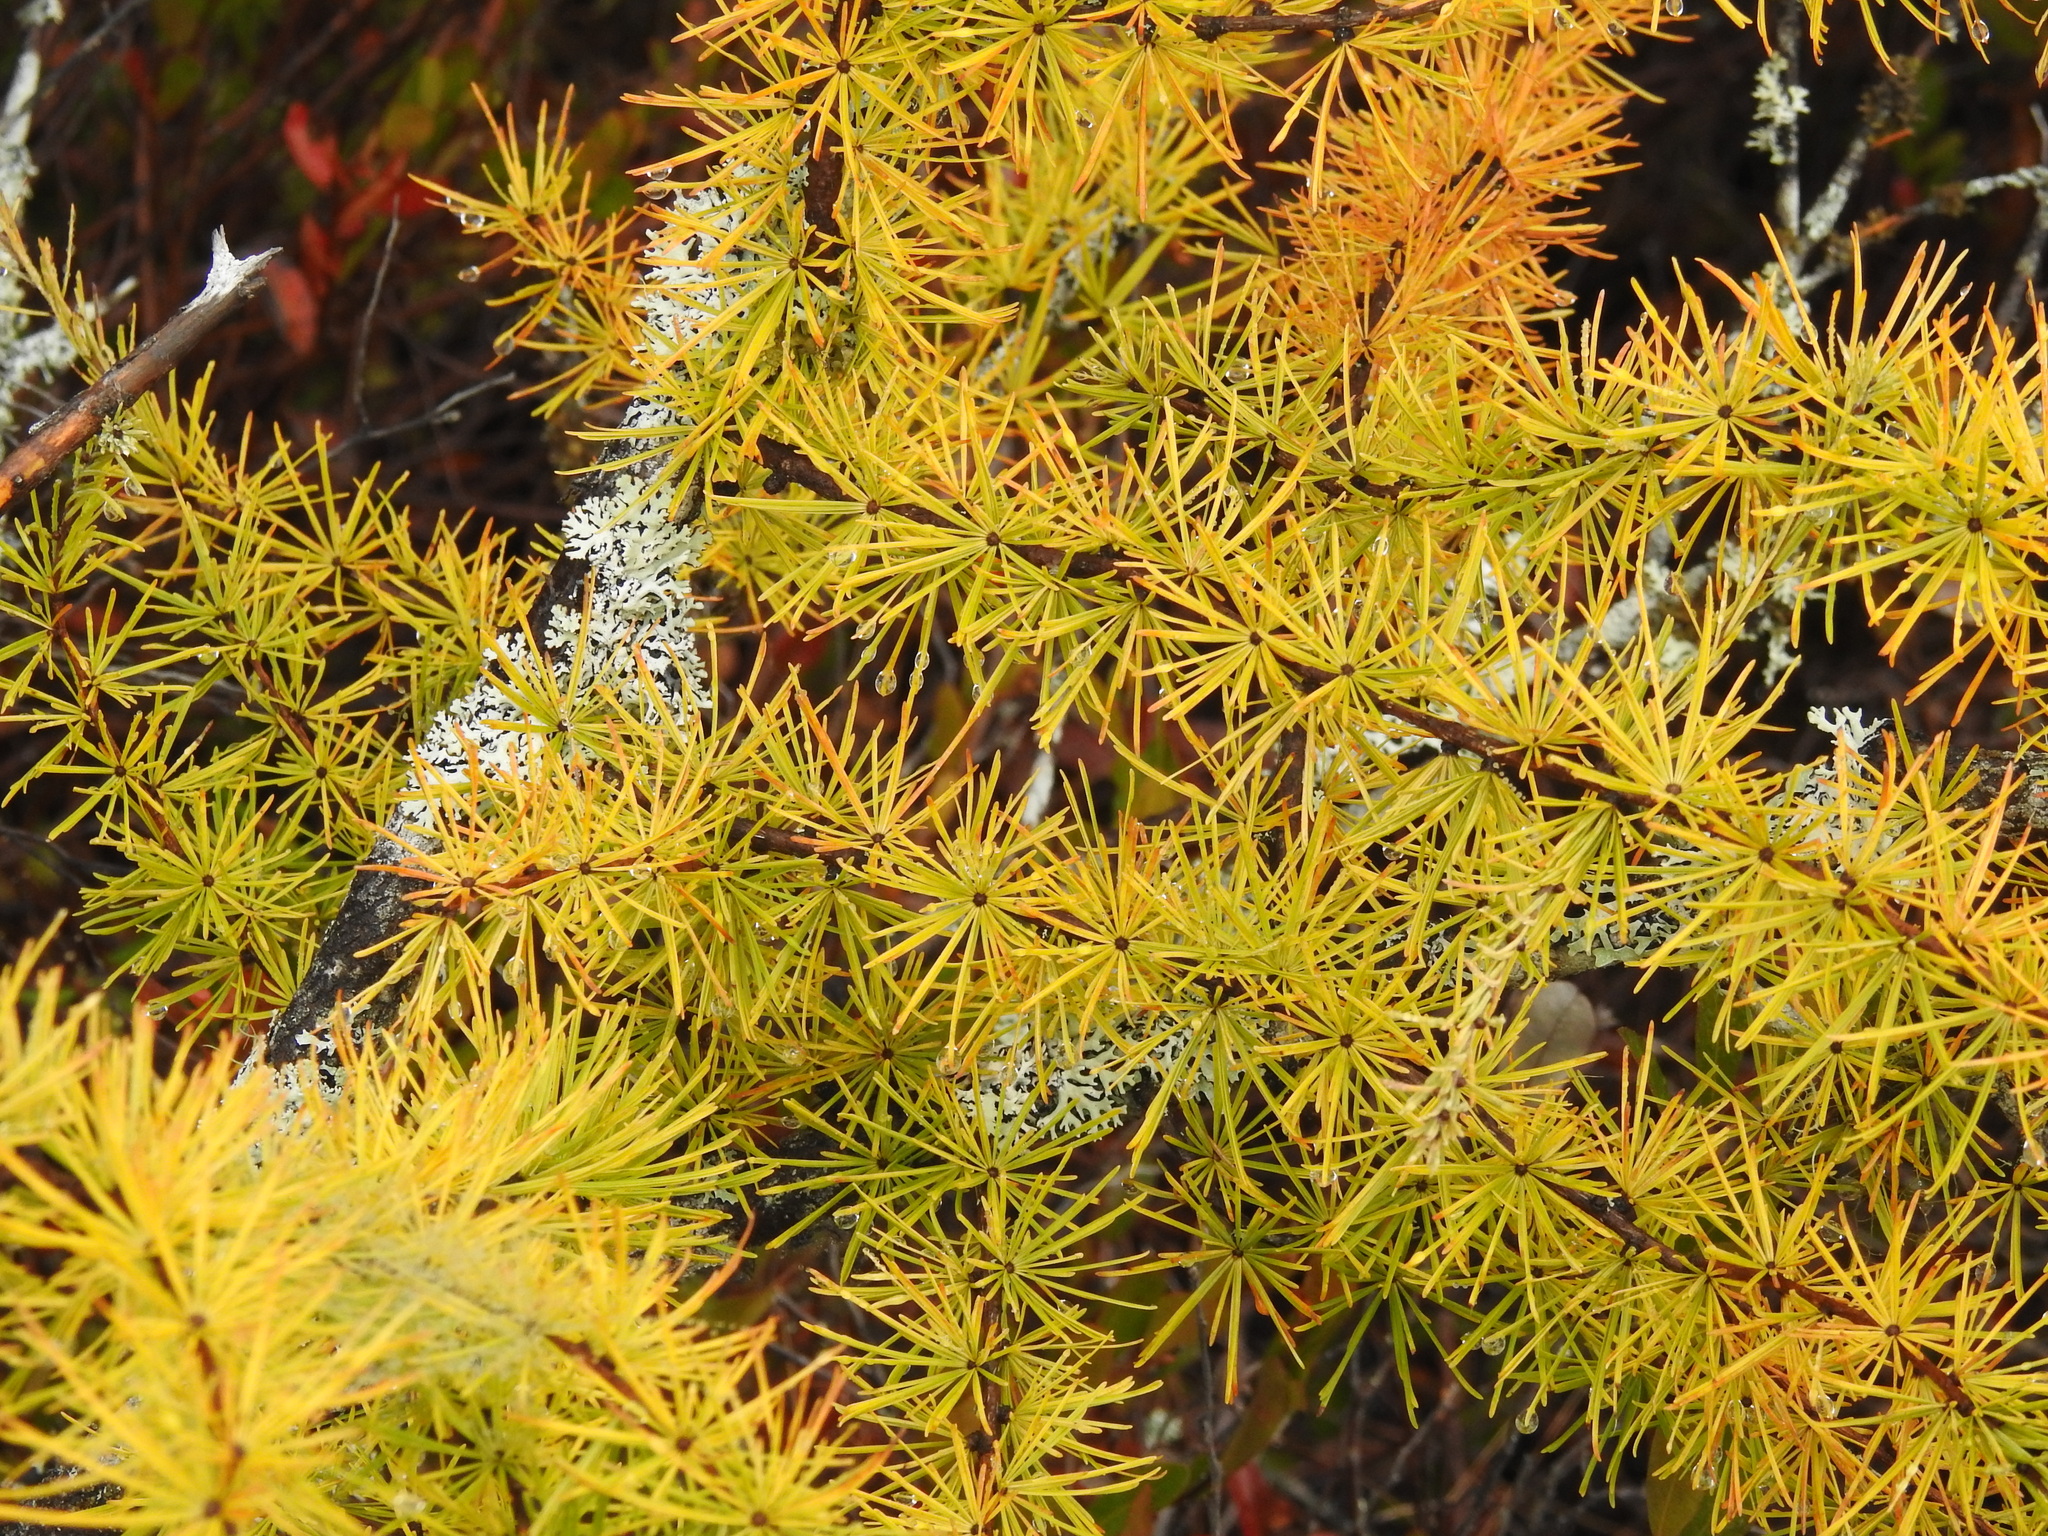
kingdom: Plantae
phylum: Tracheophyta
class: Pinopsida
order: Pinales
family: Pinaceae
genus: Larix
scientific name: Larix laricina
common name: American larch
